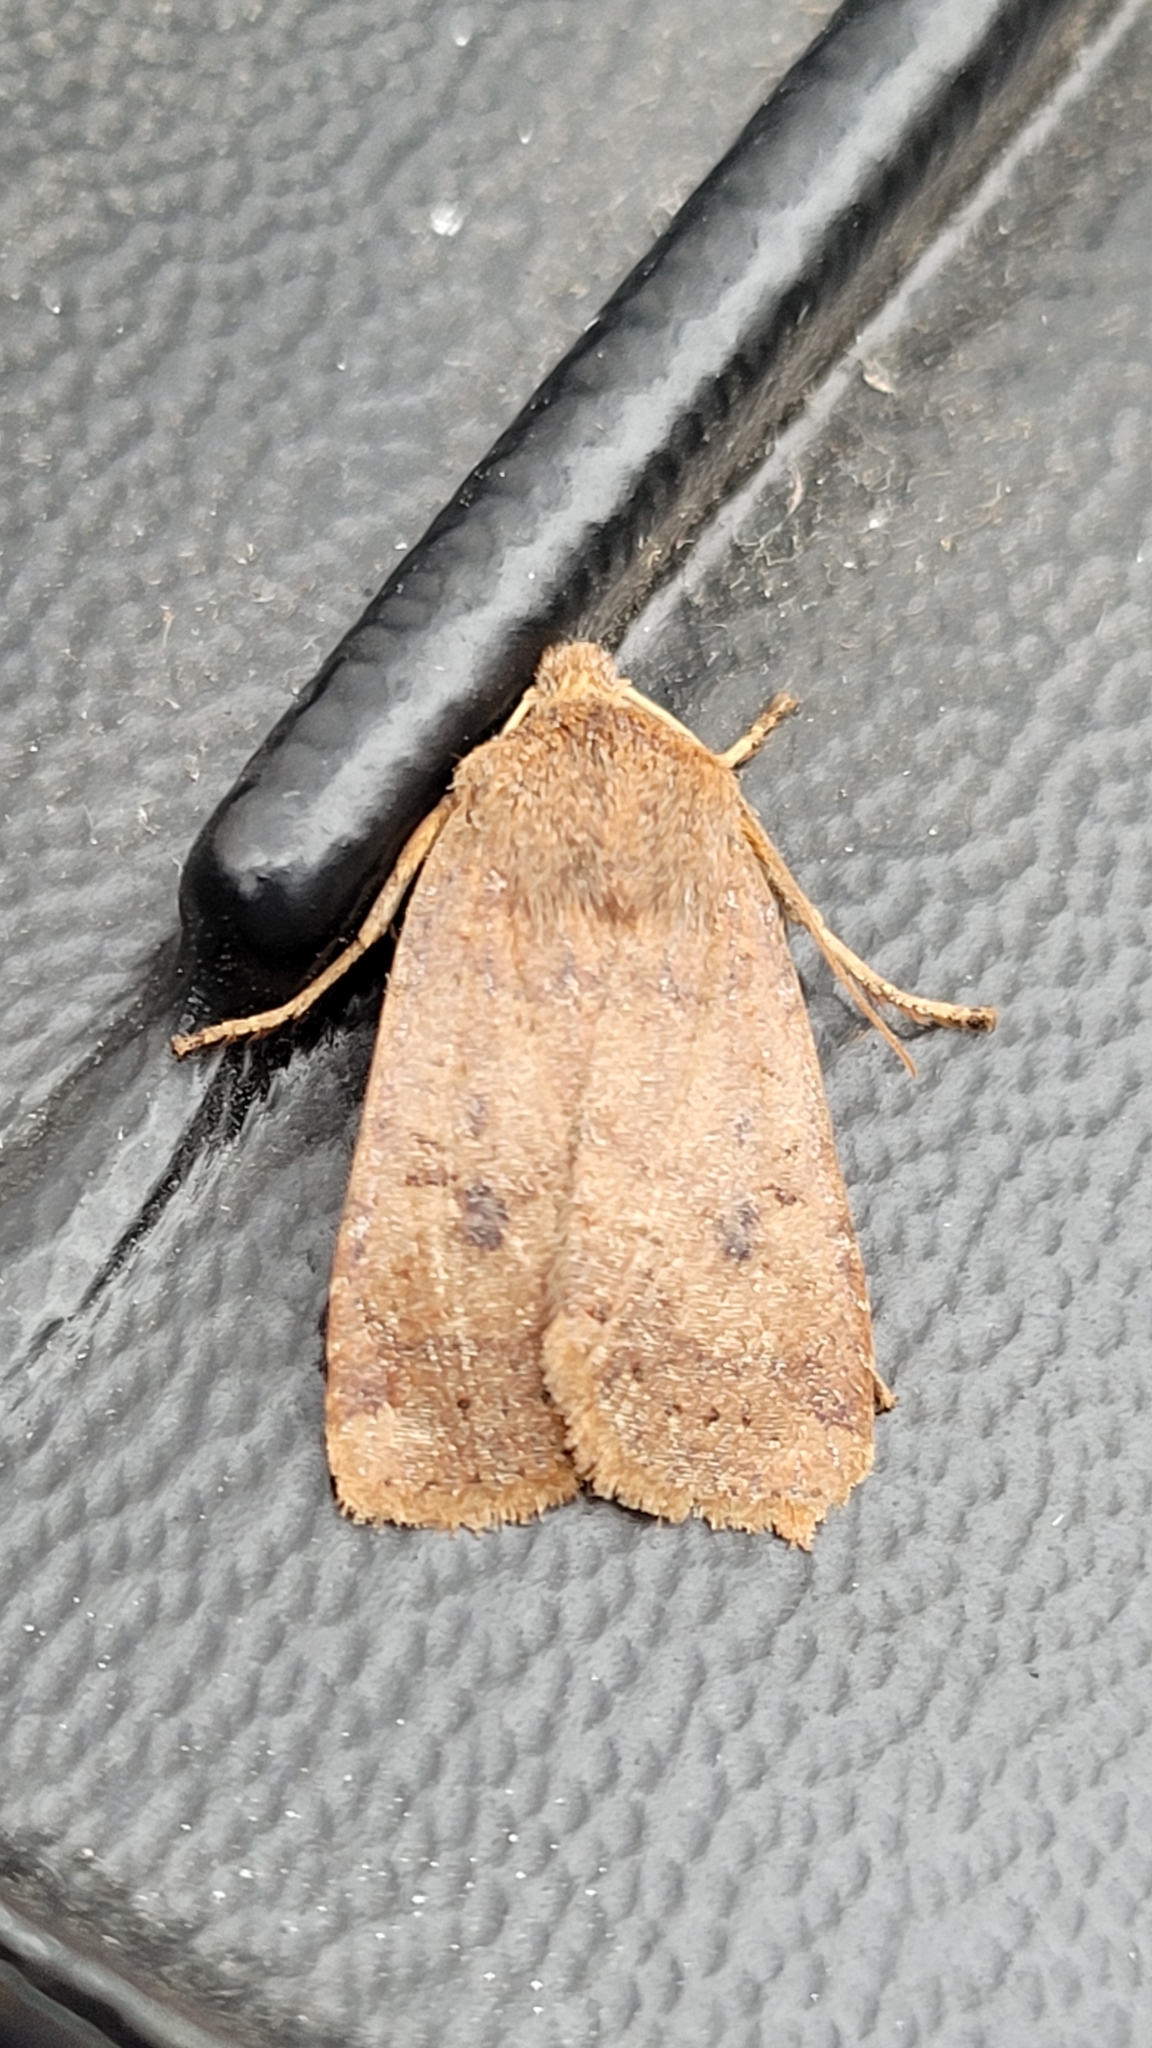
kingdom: Animalia
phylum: Arthropoda
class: Insecta
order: Lepidoptera
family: Noctuidae
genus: Conistra
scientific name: Conistra vaccinii
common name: Chestnut
